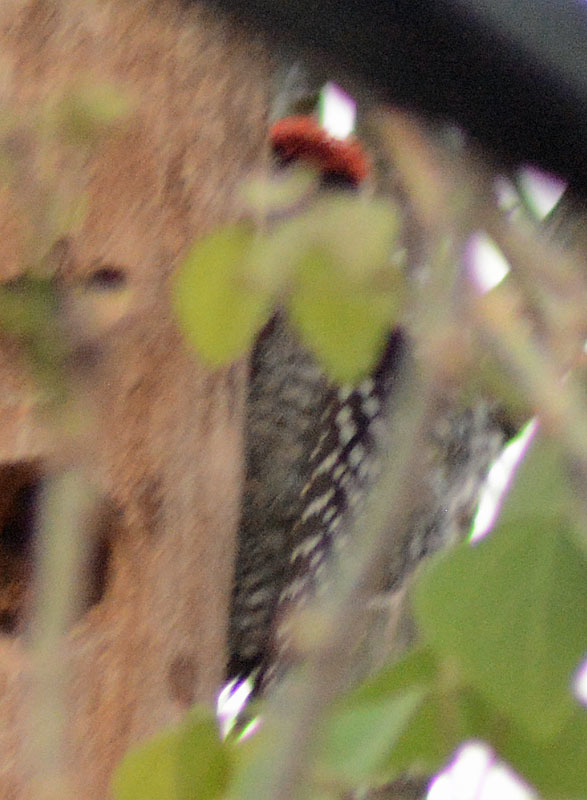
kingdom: Animalia
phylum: Chordata
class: Aves
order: Piciformes
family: Picidae
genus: Dryobates
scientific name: Dryobates scalaris
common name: Ladder-backed woodpecker
